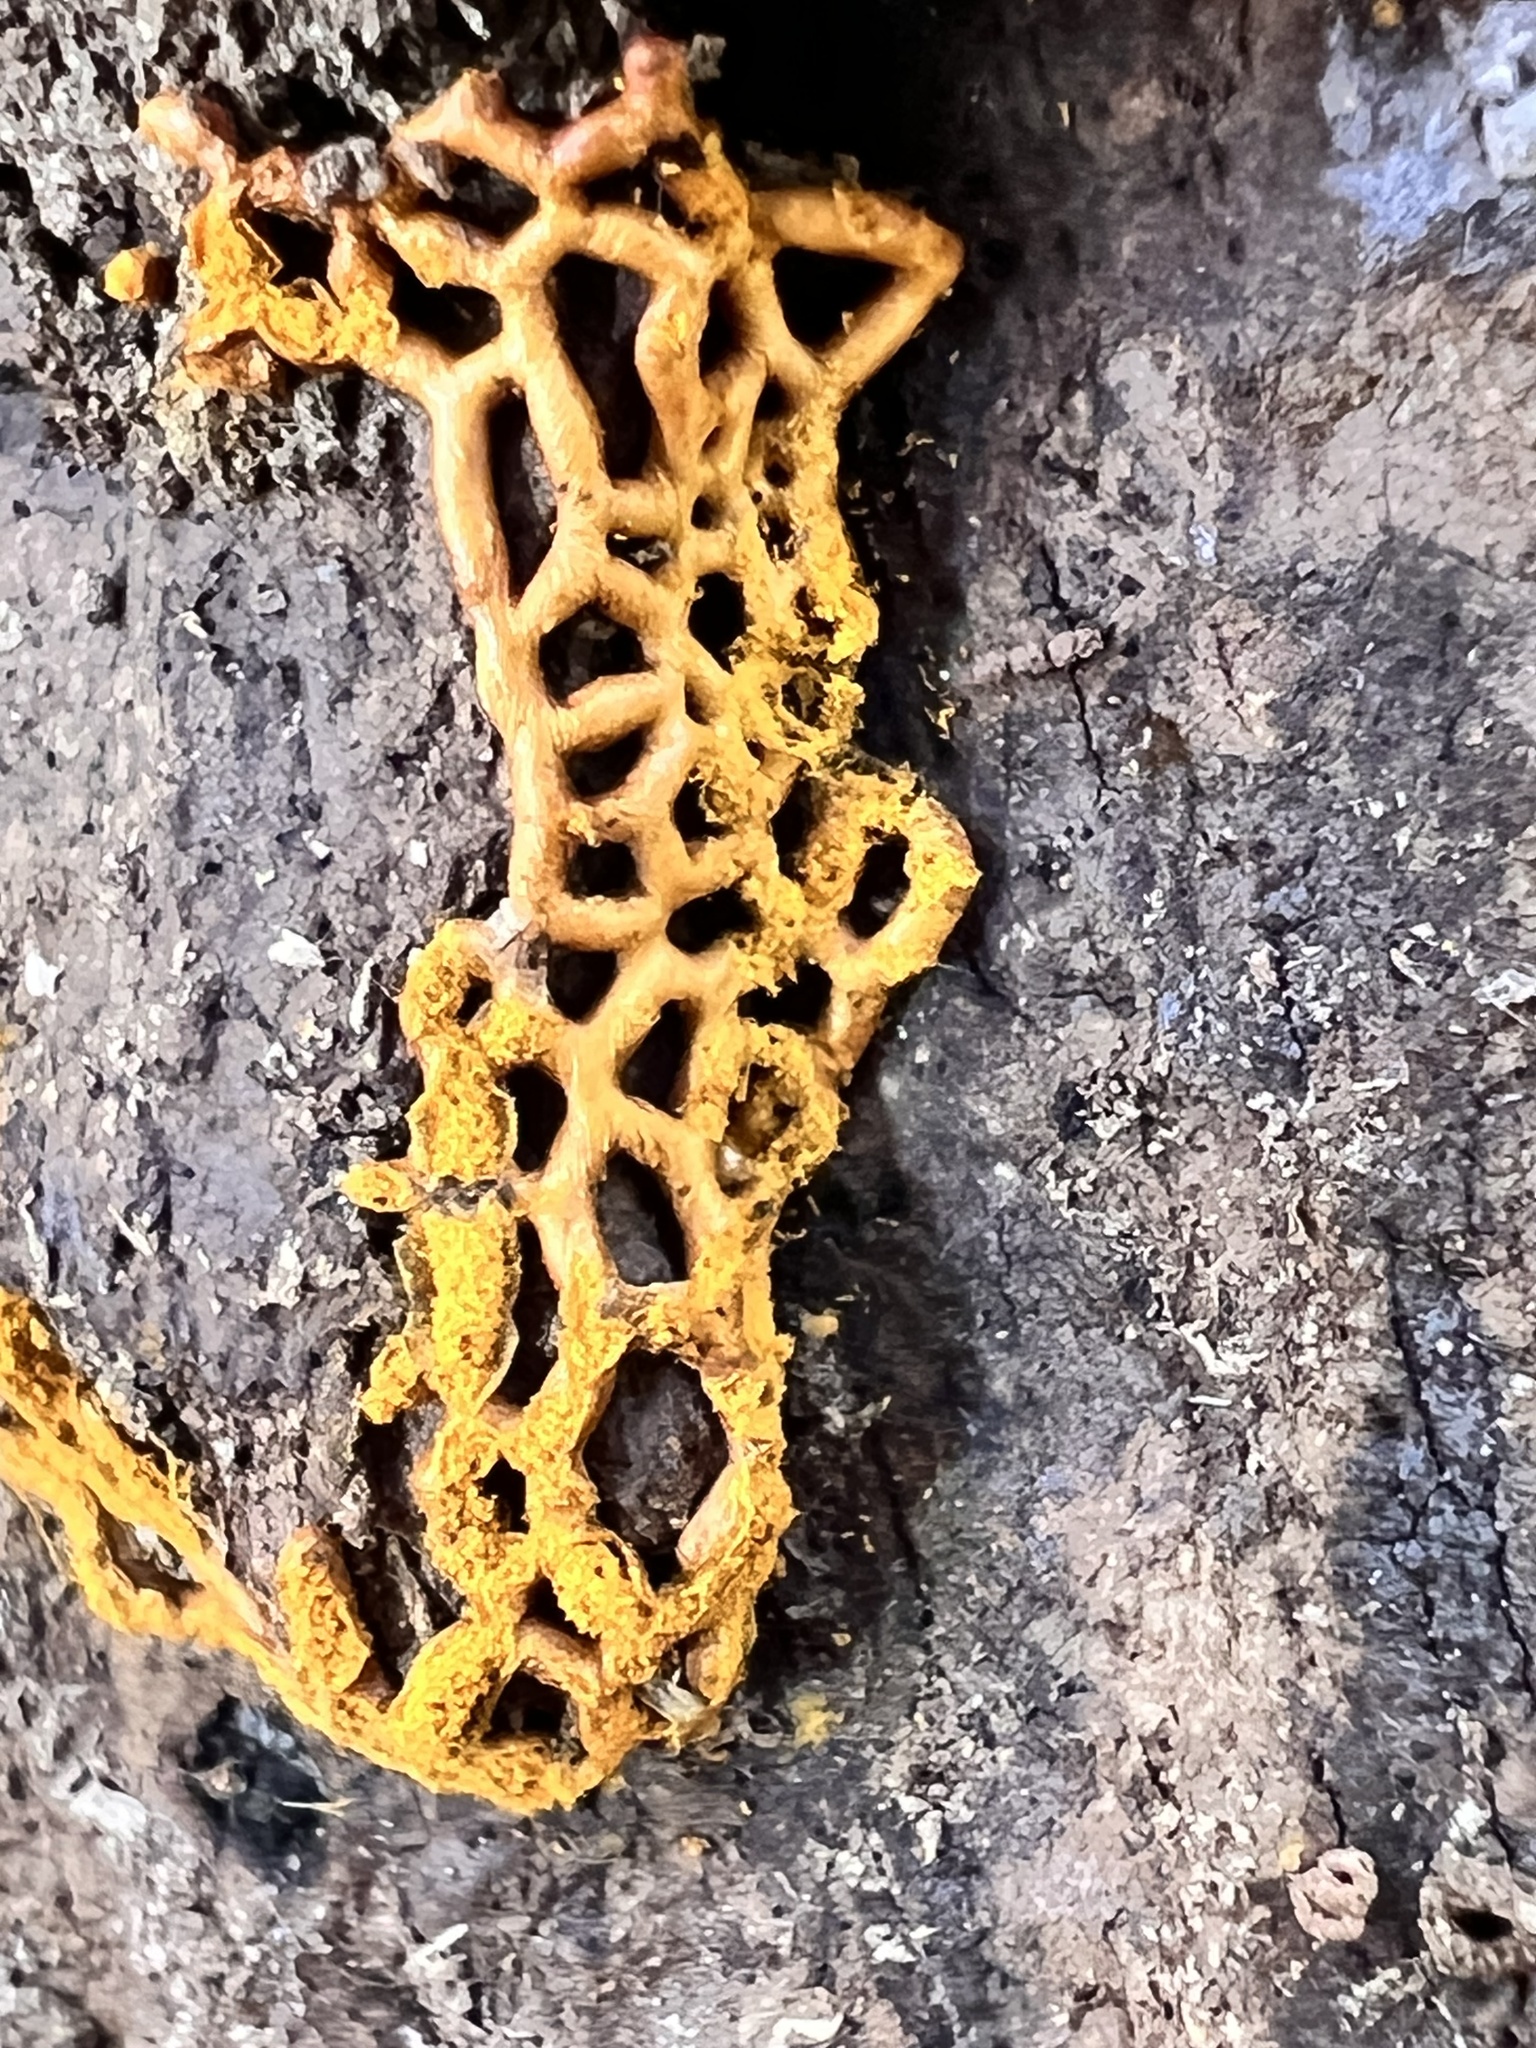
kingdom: Protozoa
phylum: Mycetozoa
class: Myxomycetes
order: Trichiales
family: Arcyriaceae
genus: Hemitrichia
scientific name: Hemitrichia serpula
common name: Pretzel slime mold
